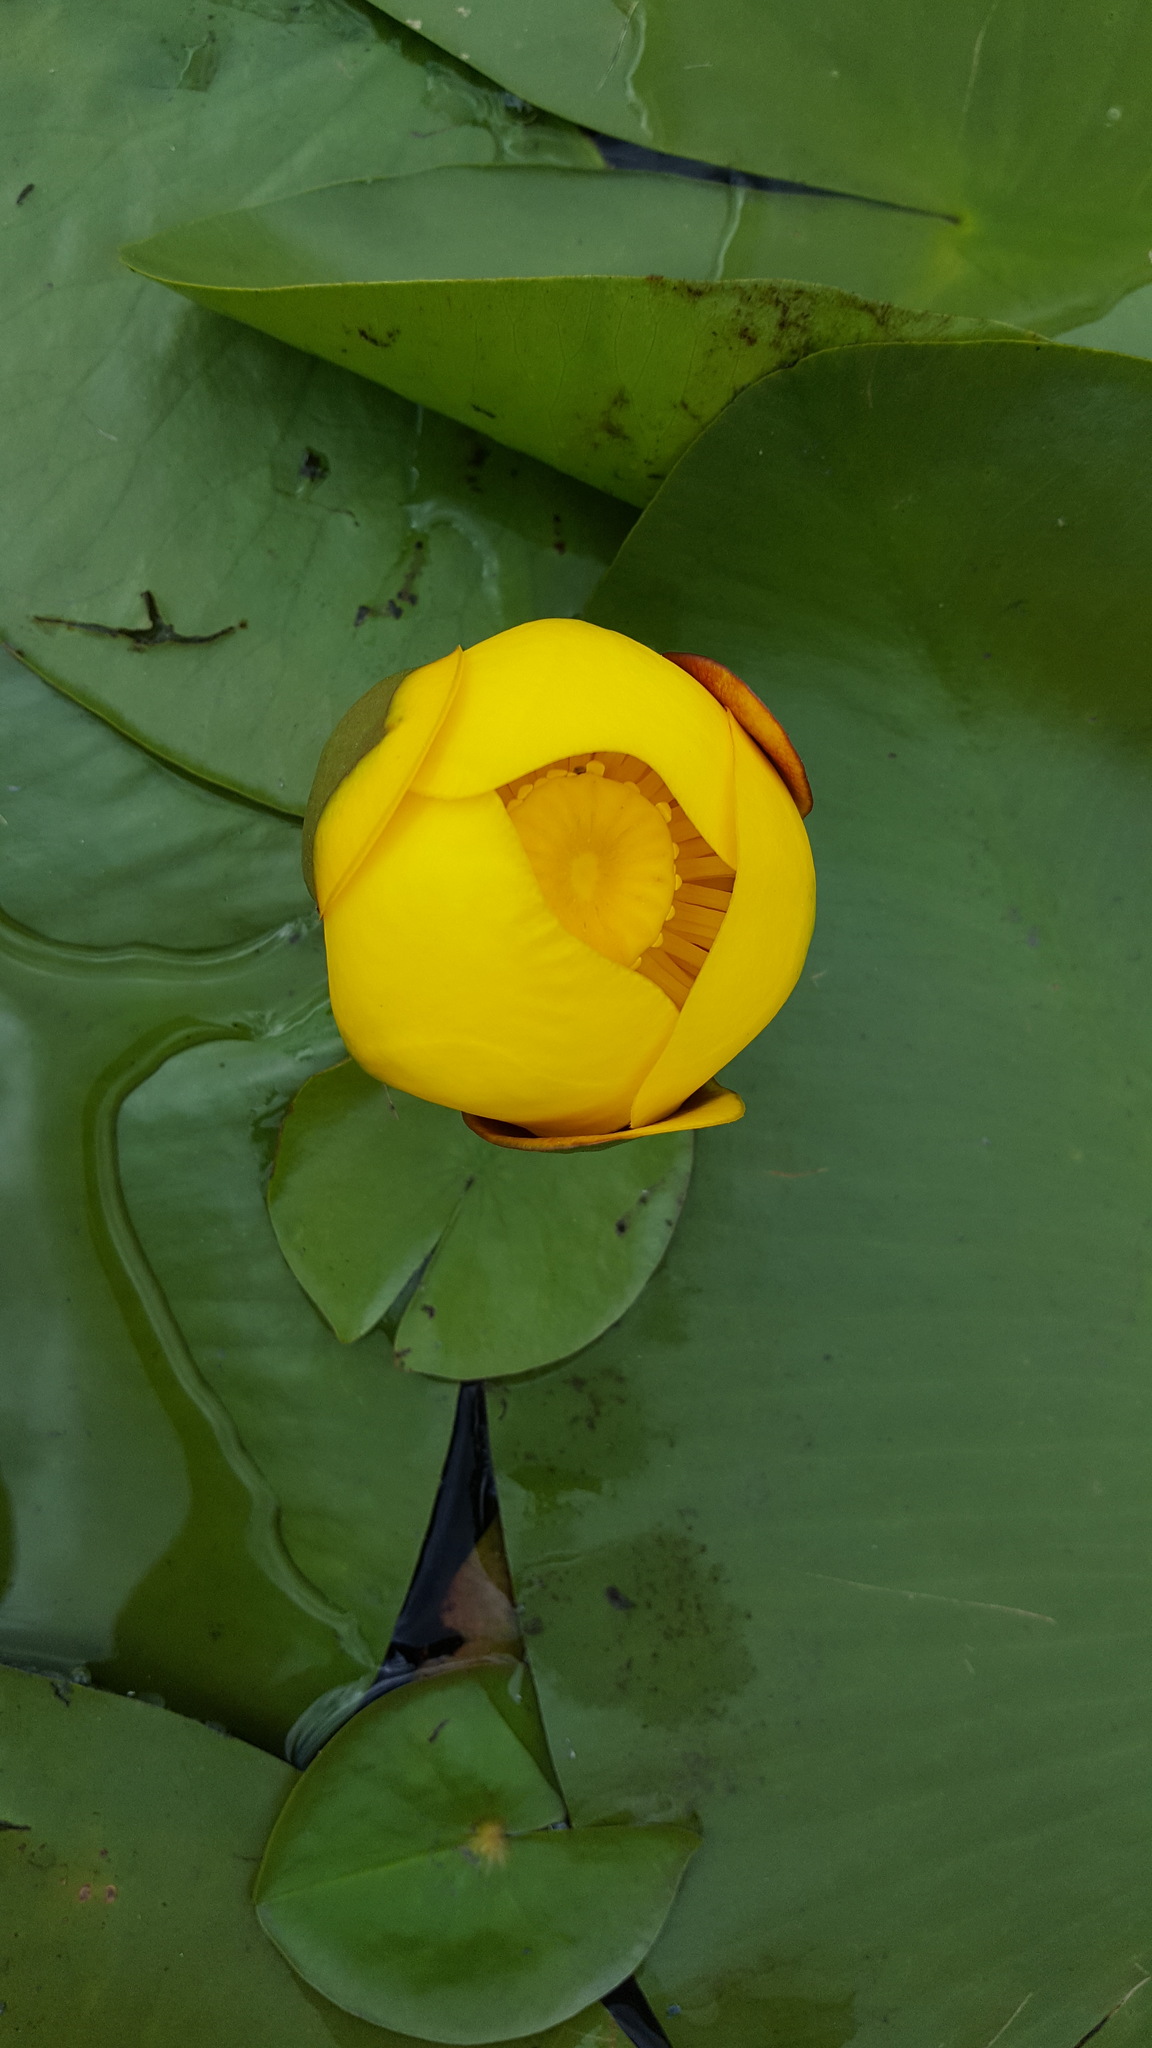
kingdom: Plantae
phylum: Tracheophyta
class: Magnoliopsida
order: Nymphaeales
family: Nymphaeaceae
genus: Nuphar
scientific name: Nuphar variegata
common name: Beaver-root
